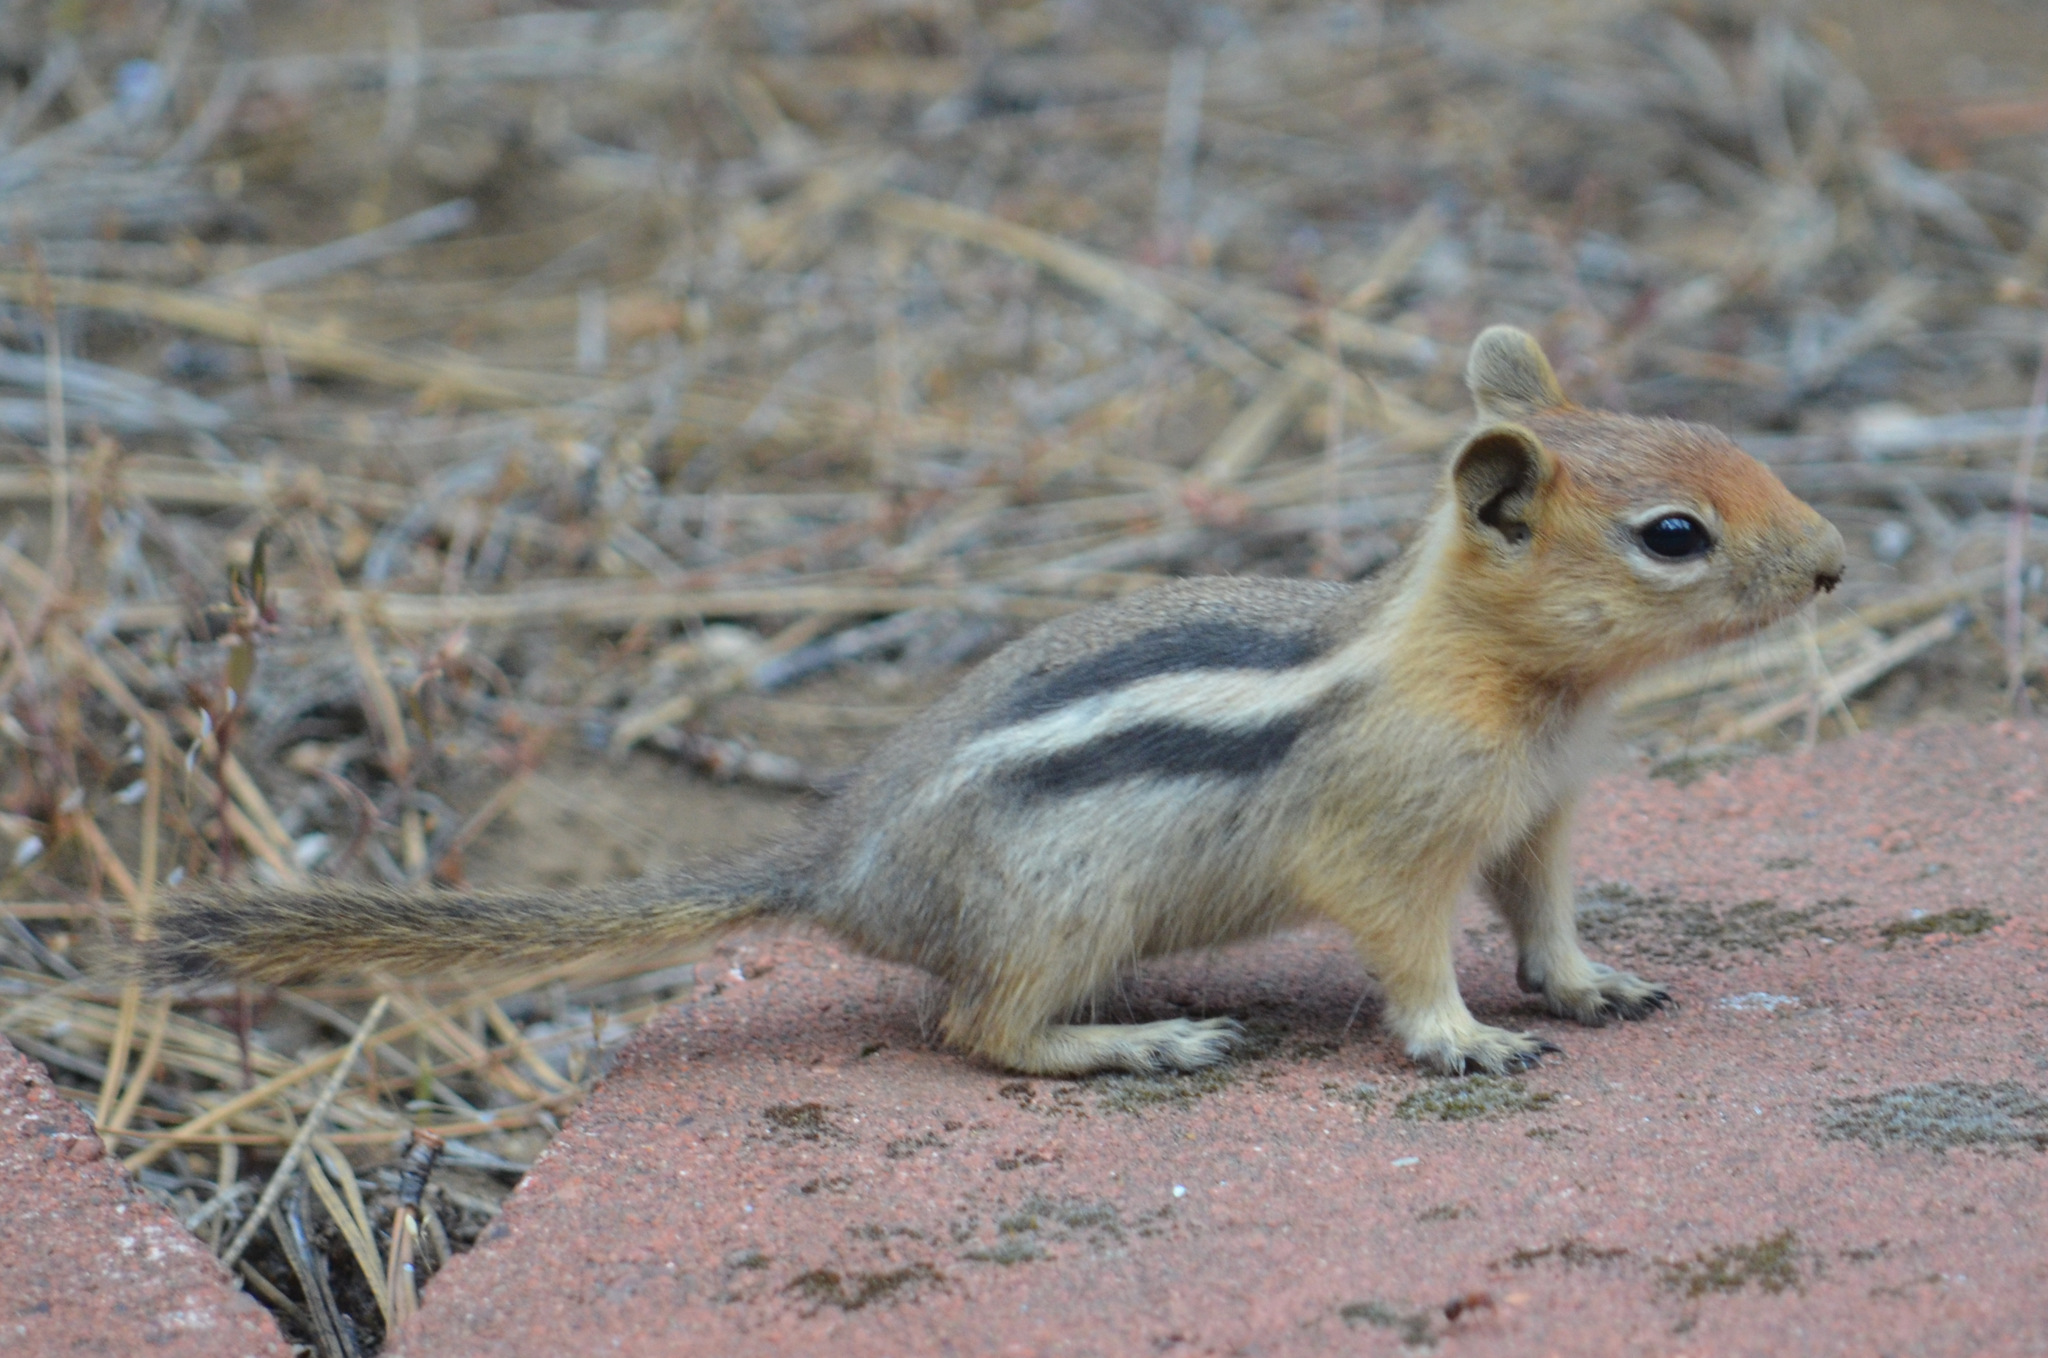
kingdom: Animalia
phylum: Chordata
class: Mammalia
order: Rodentia
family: Sciuridae
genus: Callospermophilus
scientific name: Callospermophilus lateralis
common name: Golden-mantled ground squirrel
